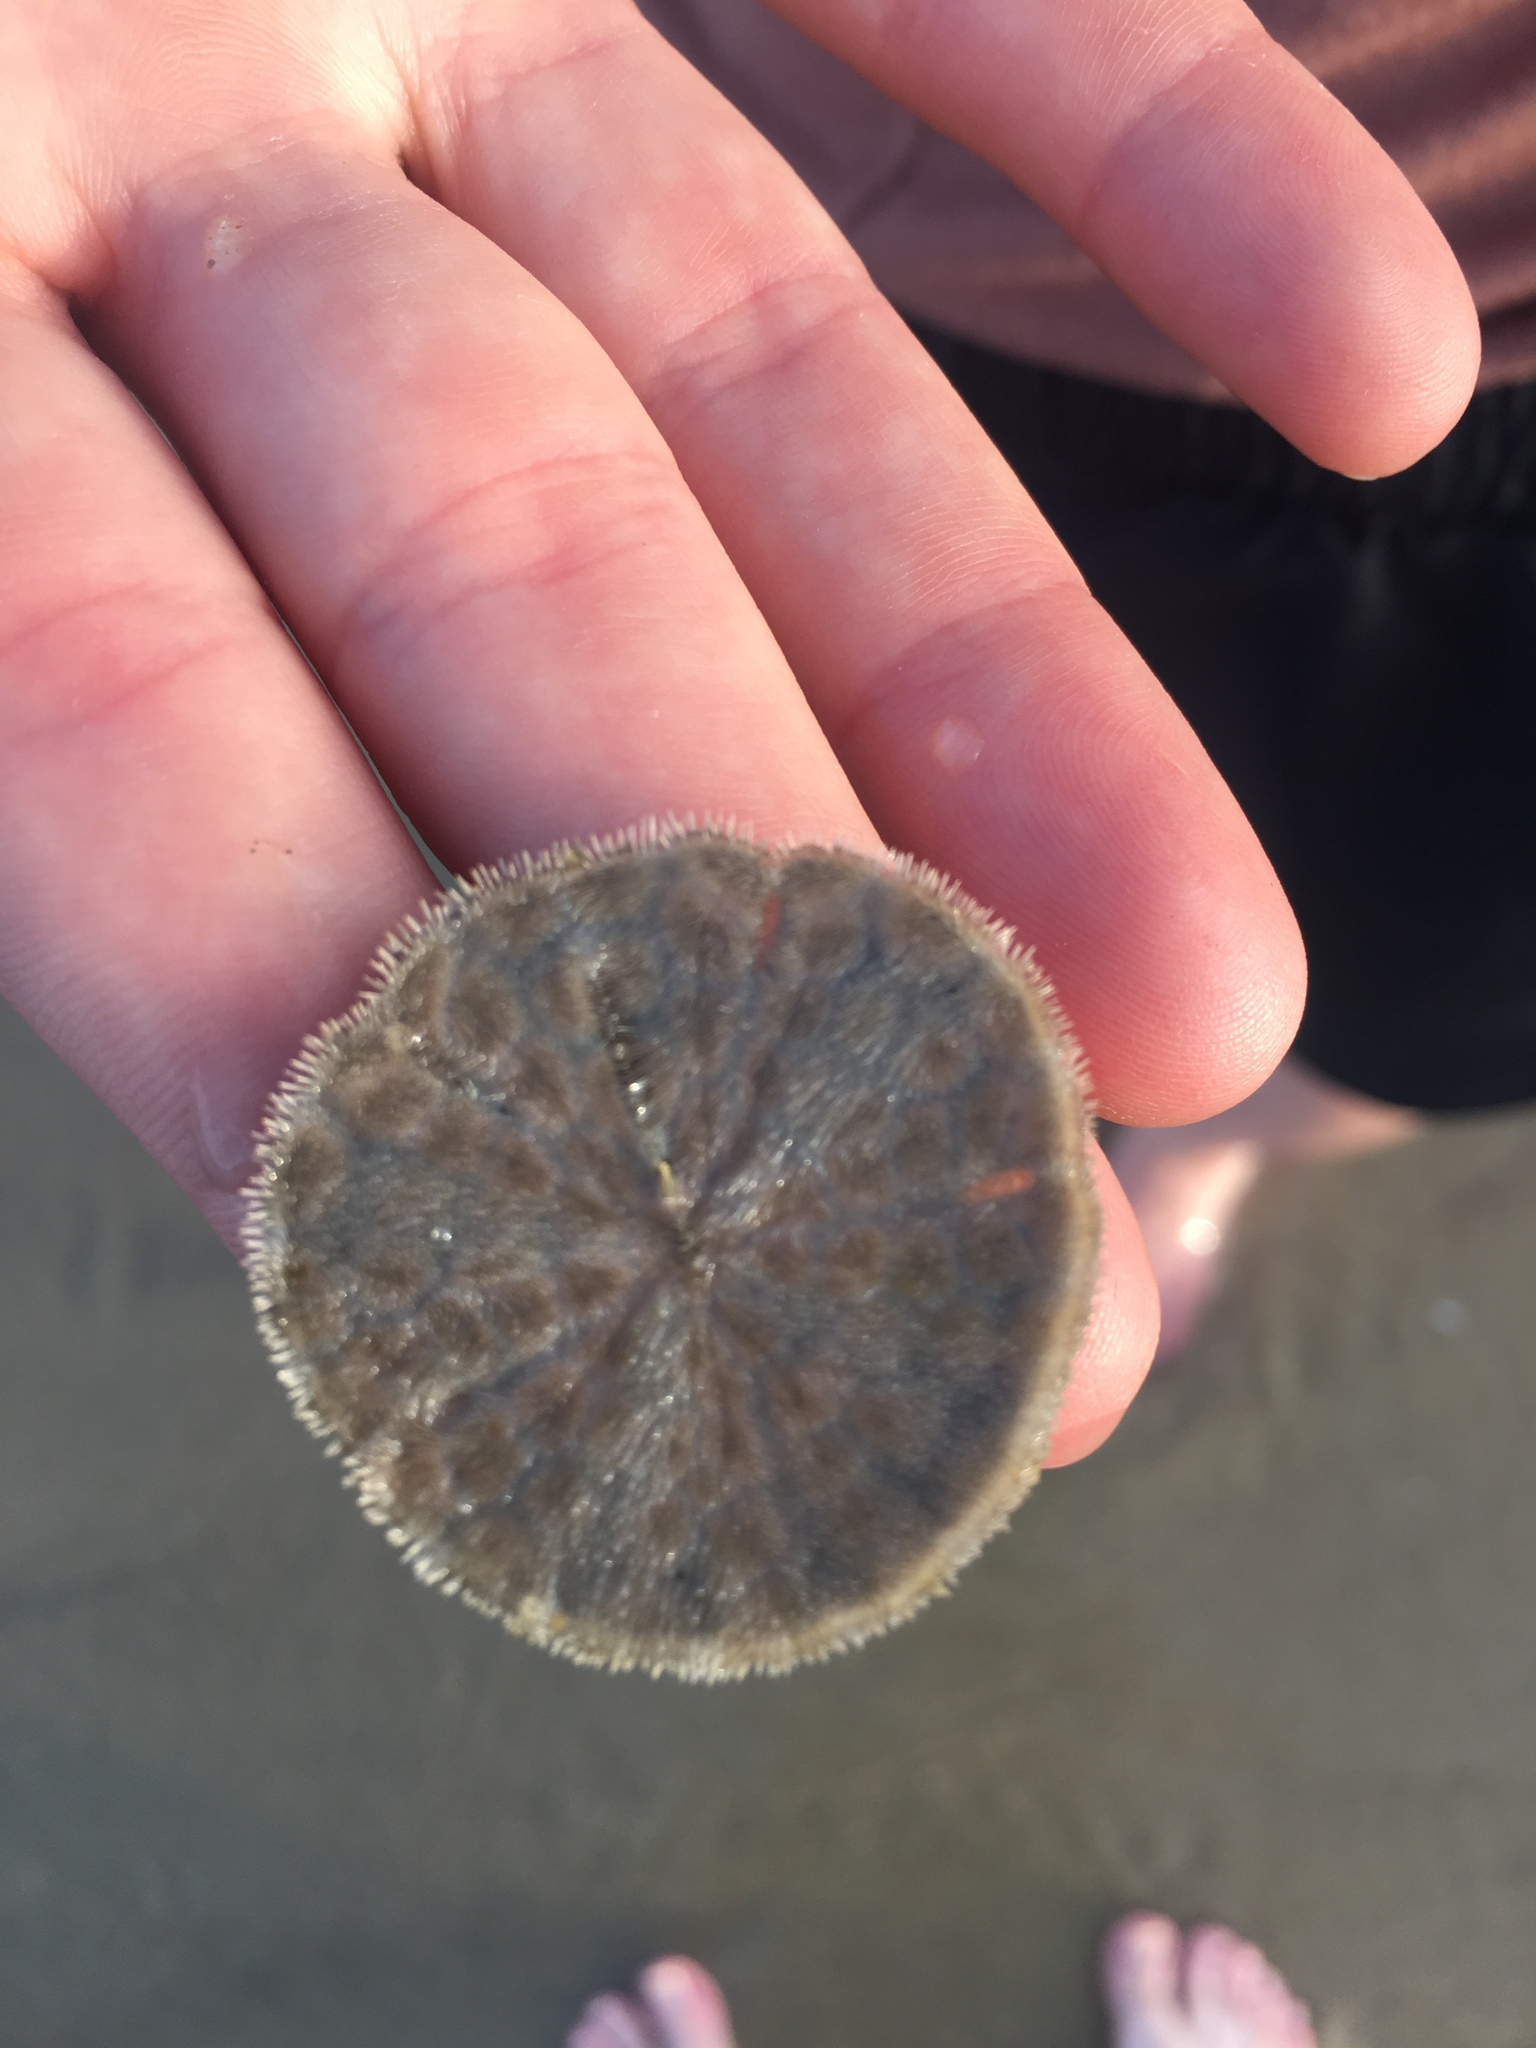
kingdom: Animalia
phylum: Echinodermata
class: Echinoidea
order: Echinolampadacea
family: Mellitidae
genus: Lanthonia
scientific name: Lanthonia grantii
